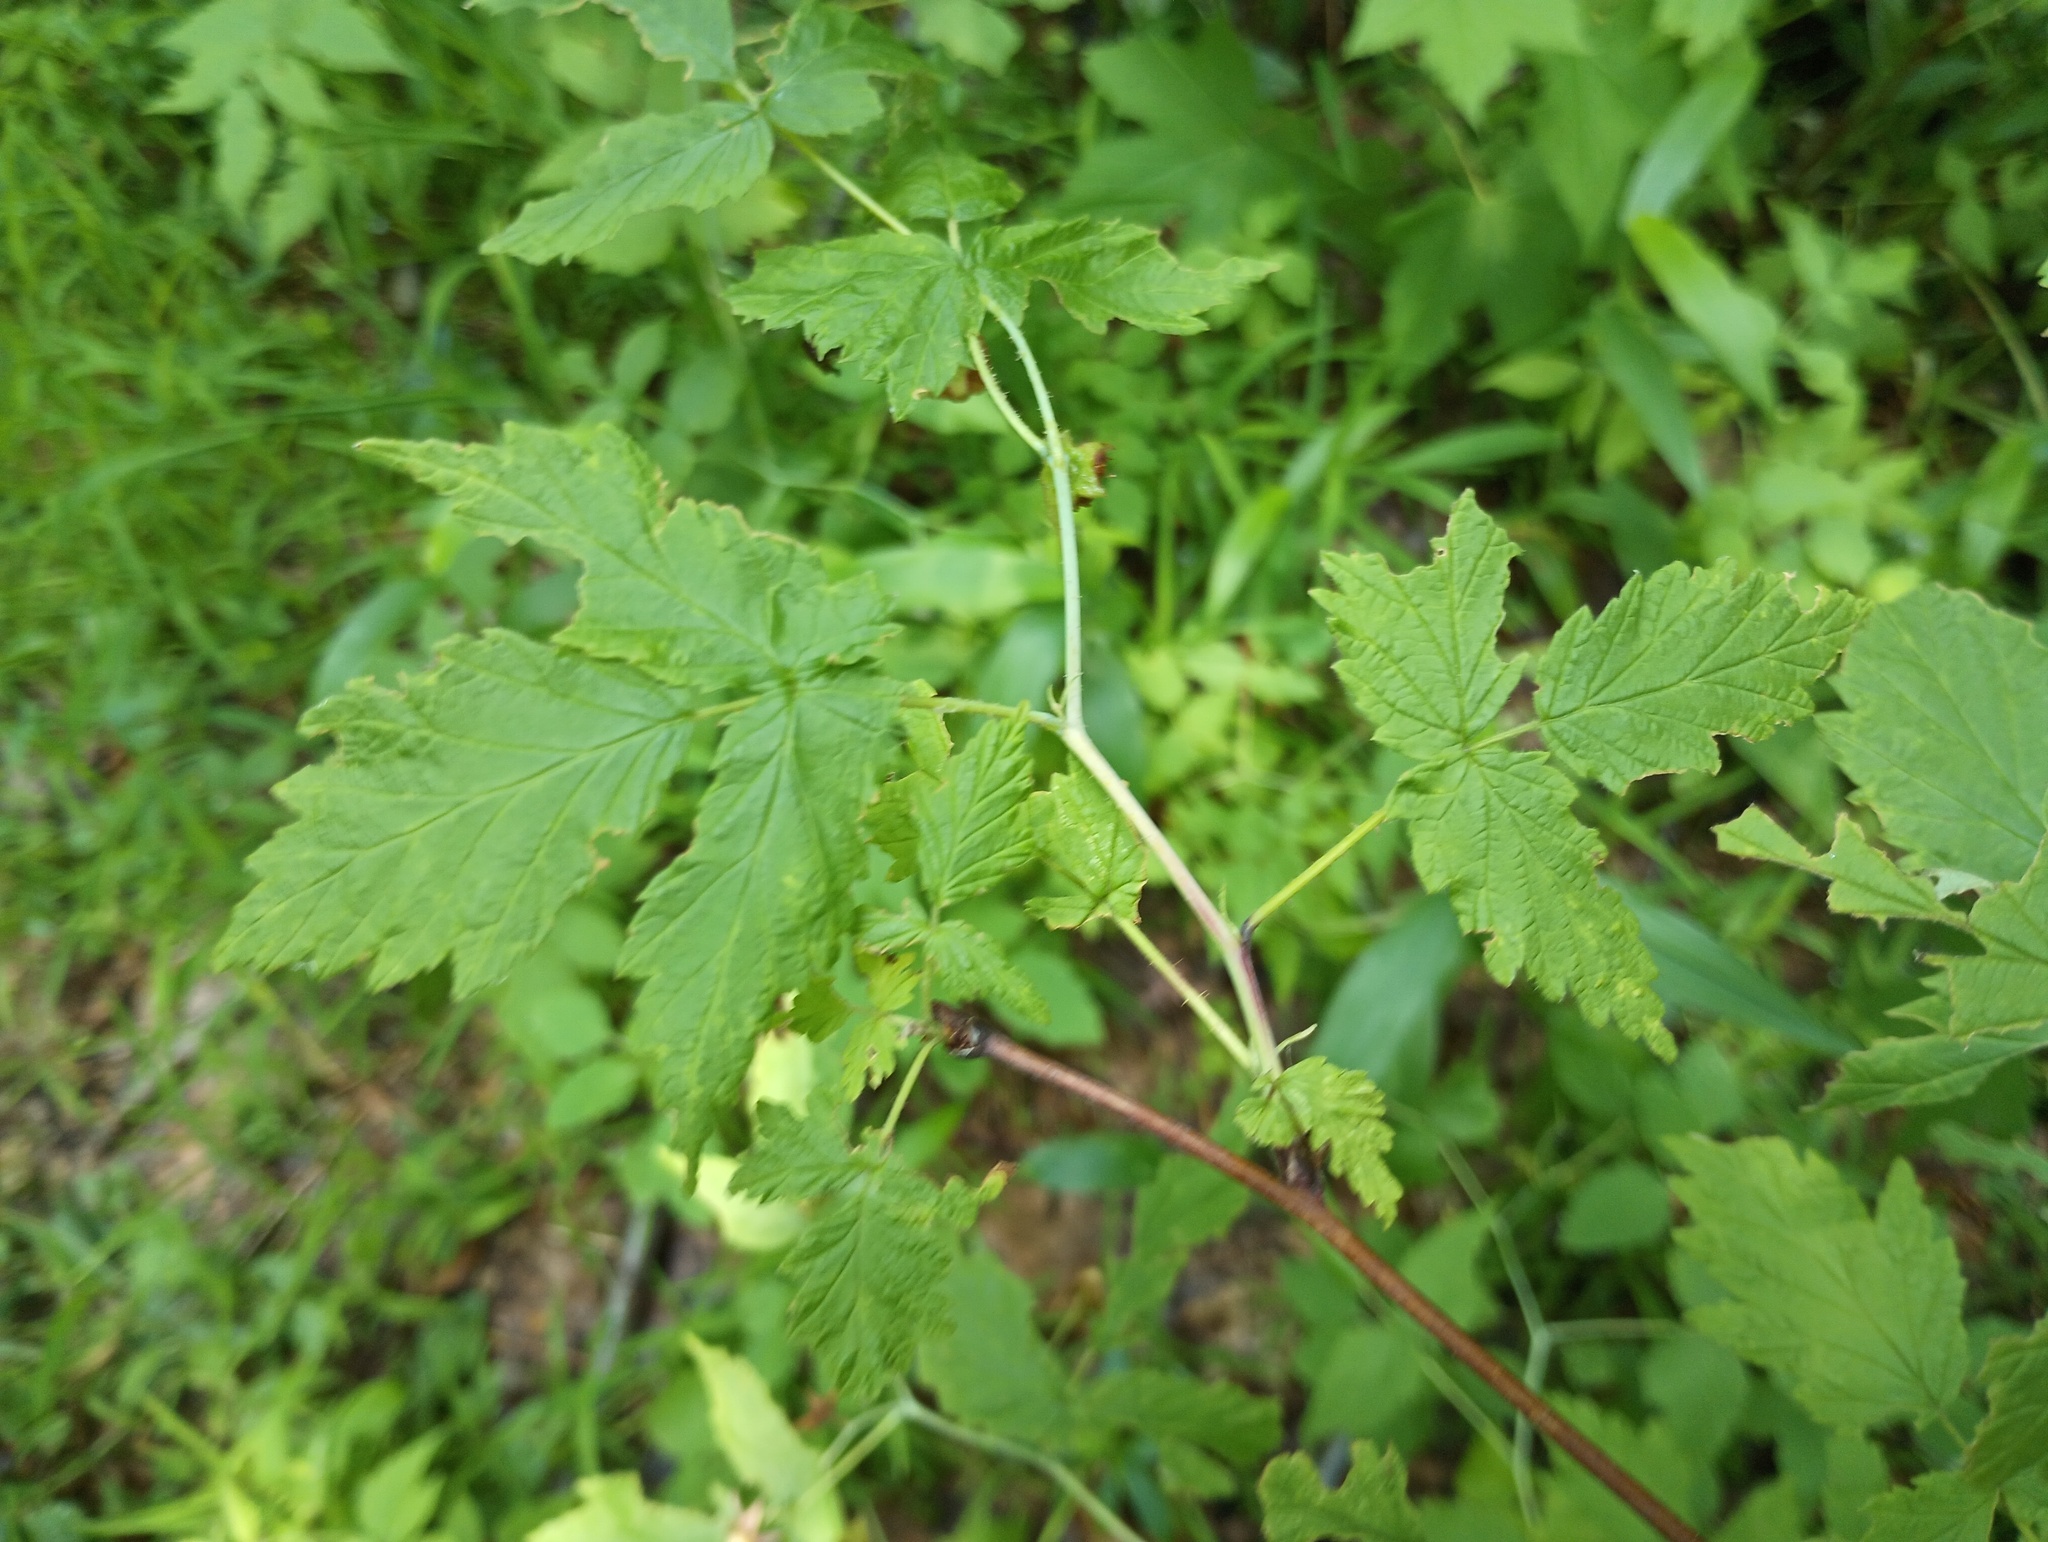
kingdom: Plantae
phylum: Tracheophyta
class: Magnoliopsida
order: Rosales
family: Rosaceae
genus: Rubus
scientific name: Rubus idaeus
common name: Raspberry
